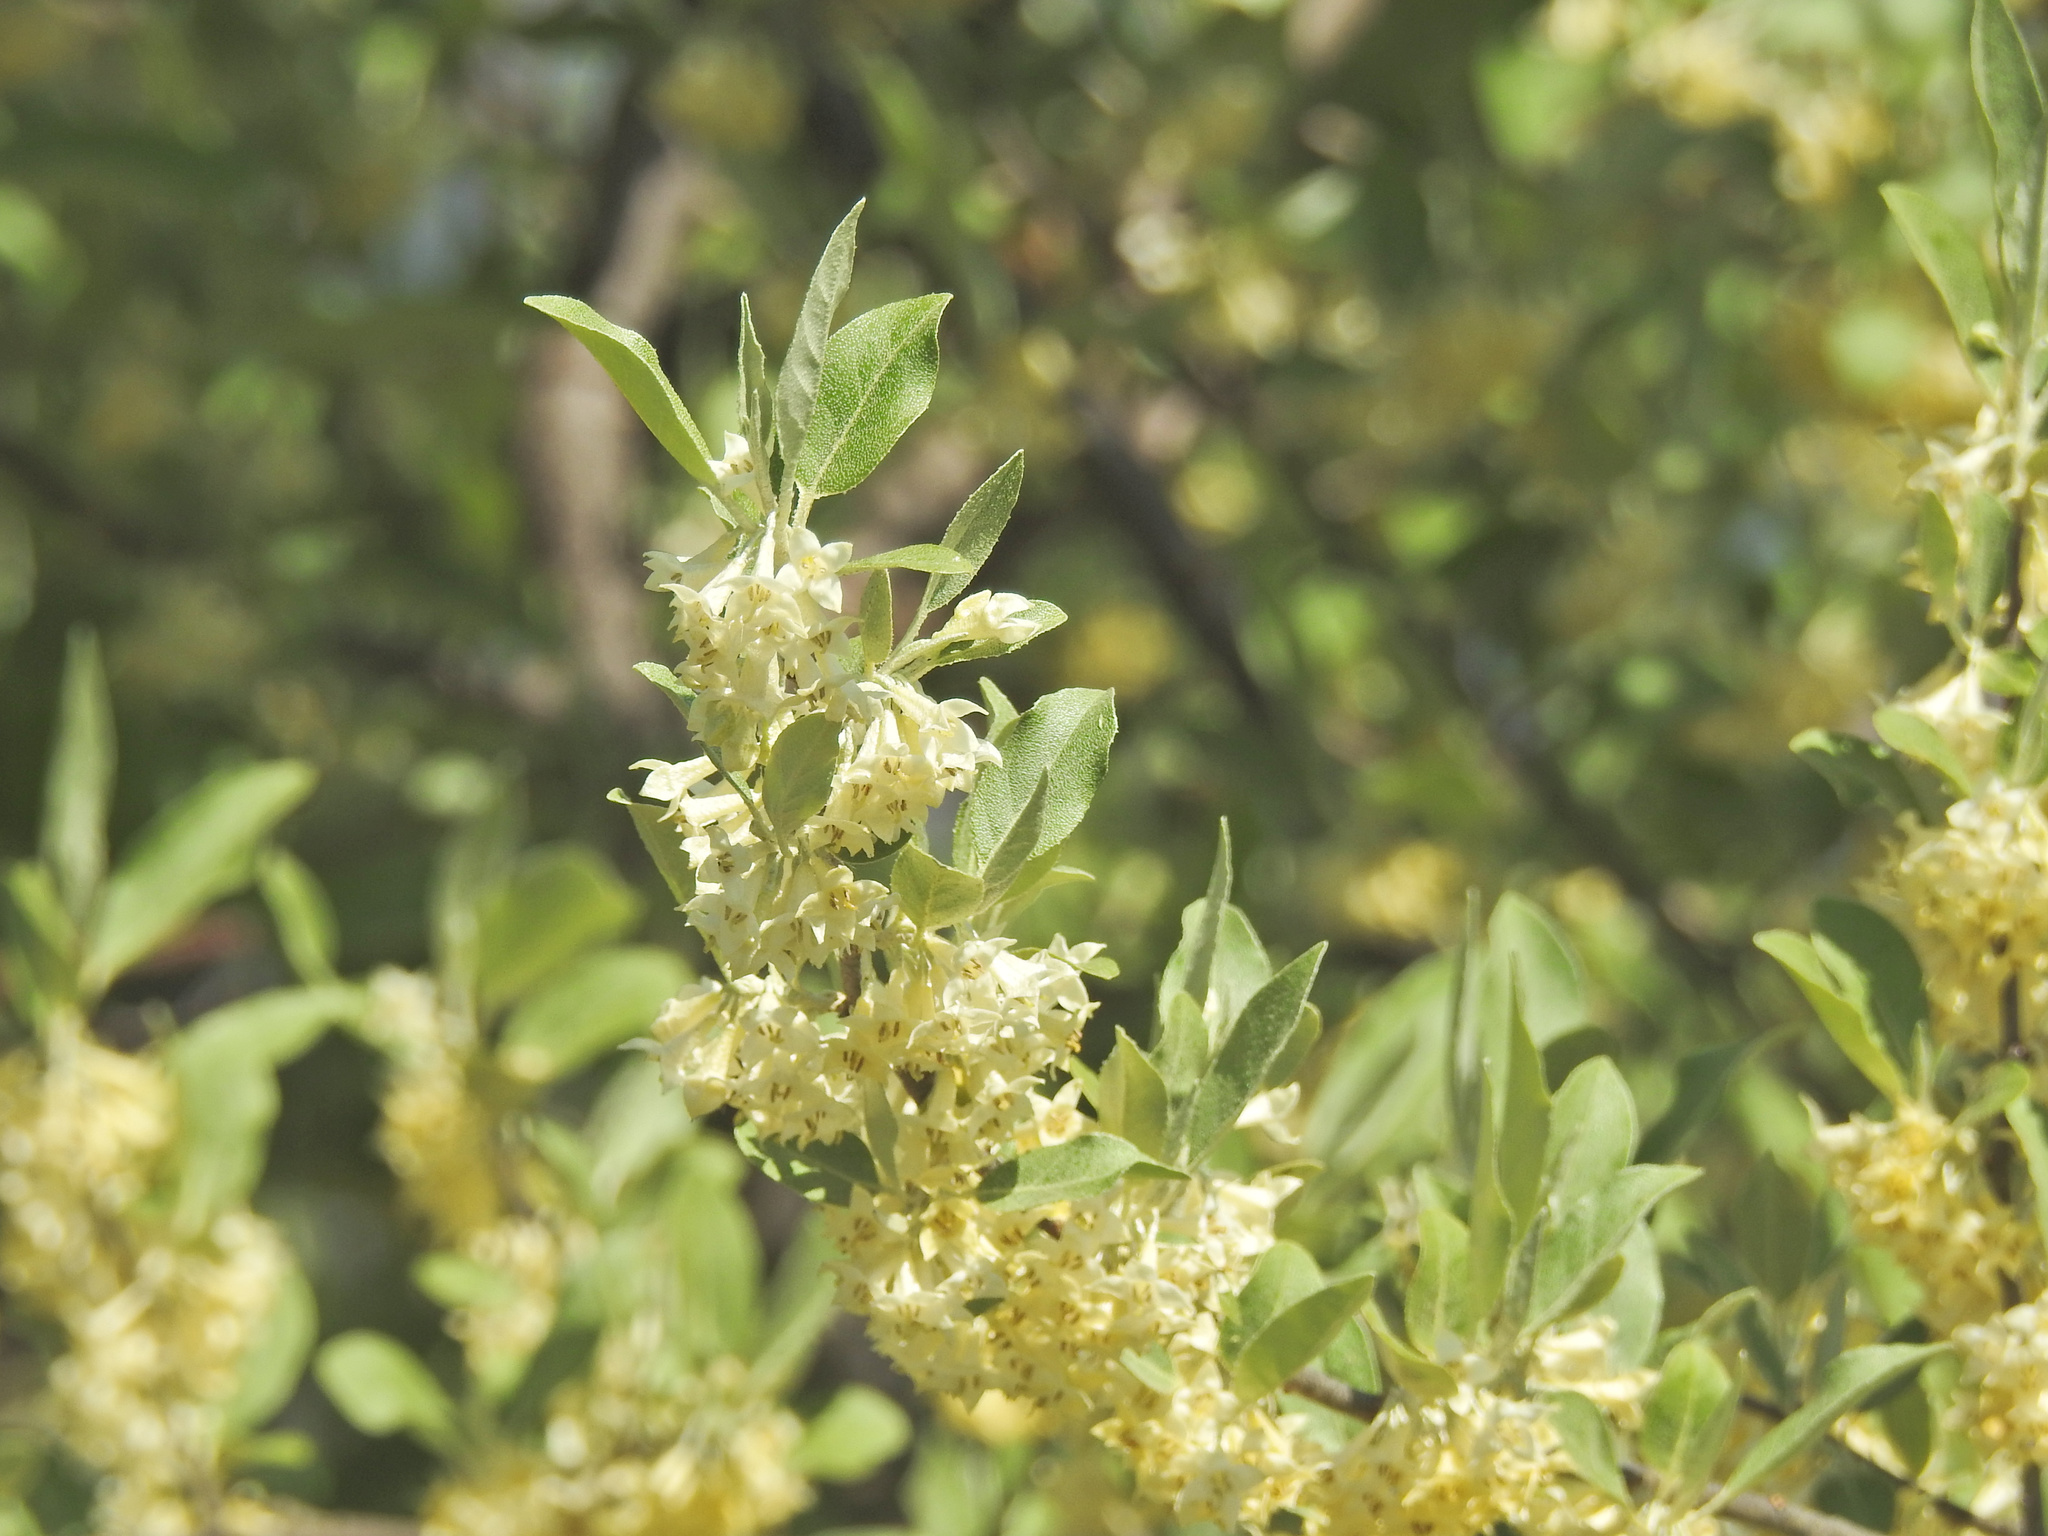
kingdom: Plantae
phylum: Tracheophyta
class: Magnoliopsida
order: Rosales
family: Elaeagnaceae
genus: Elaeagnus
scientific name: Elaeagnus umbellata
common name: Autumn olive
